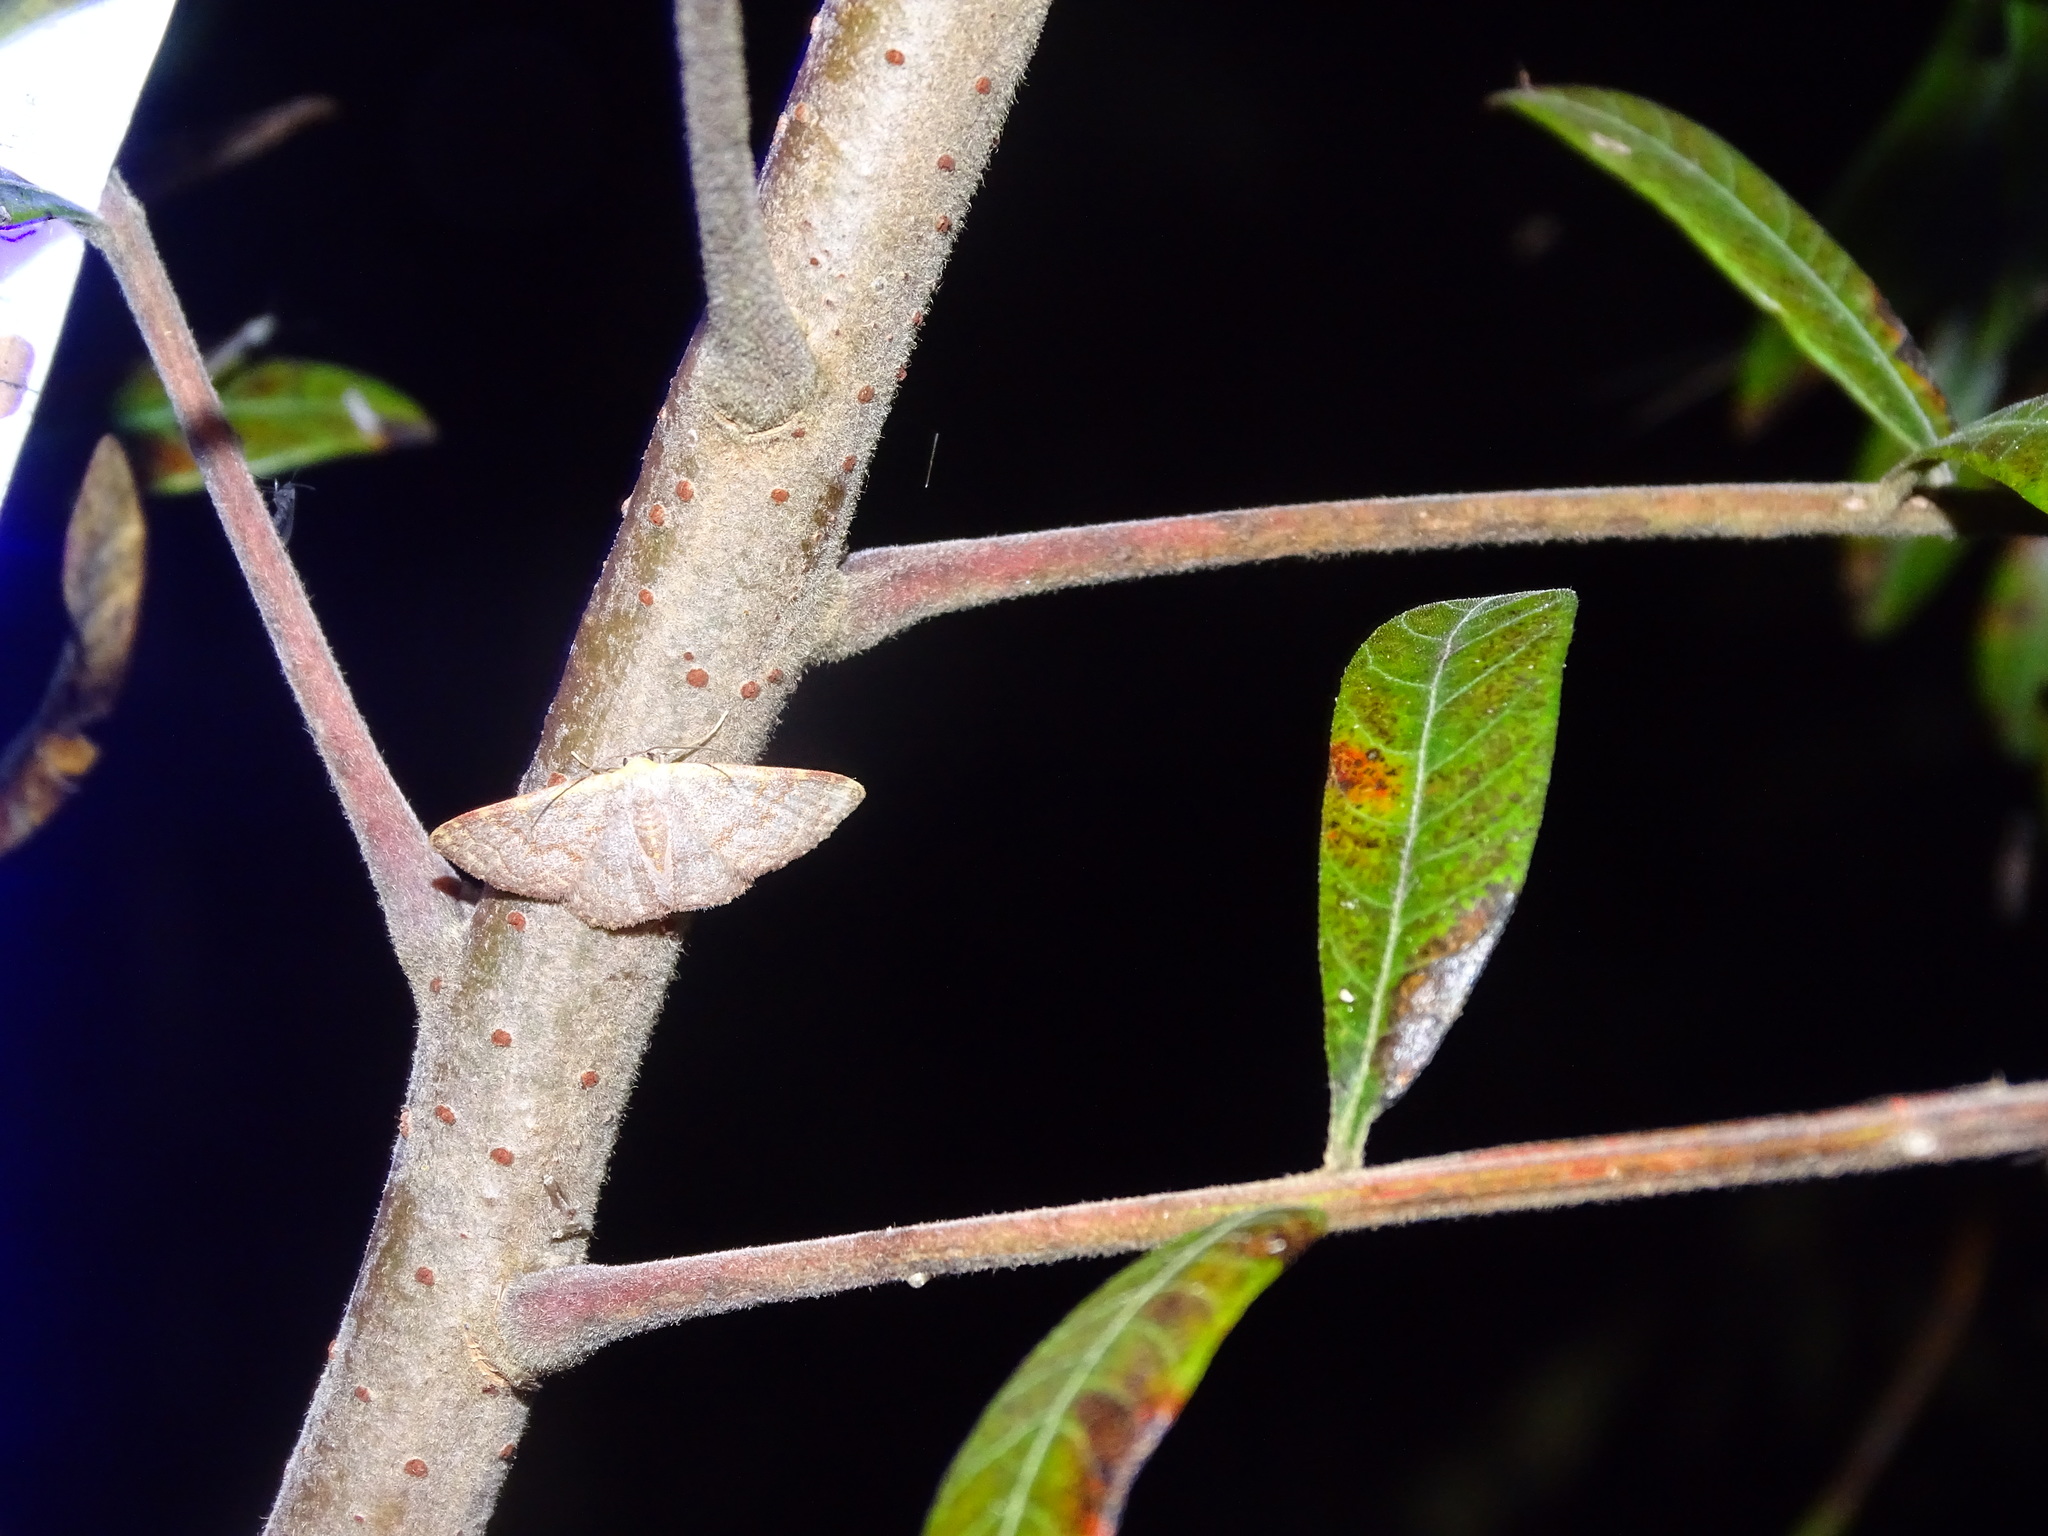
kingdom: Animalia
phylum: Arthropoda
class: Insecta
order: Lepidoptera
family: Geometridae
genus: Leptostales
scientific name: Leptostales pannaria
